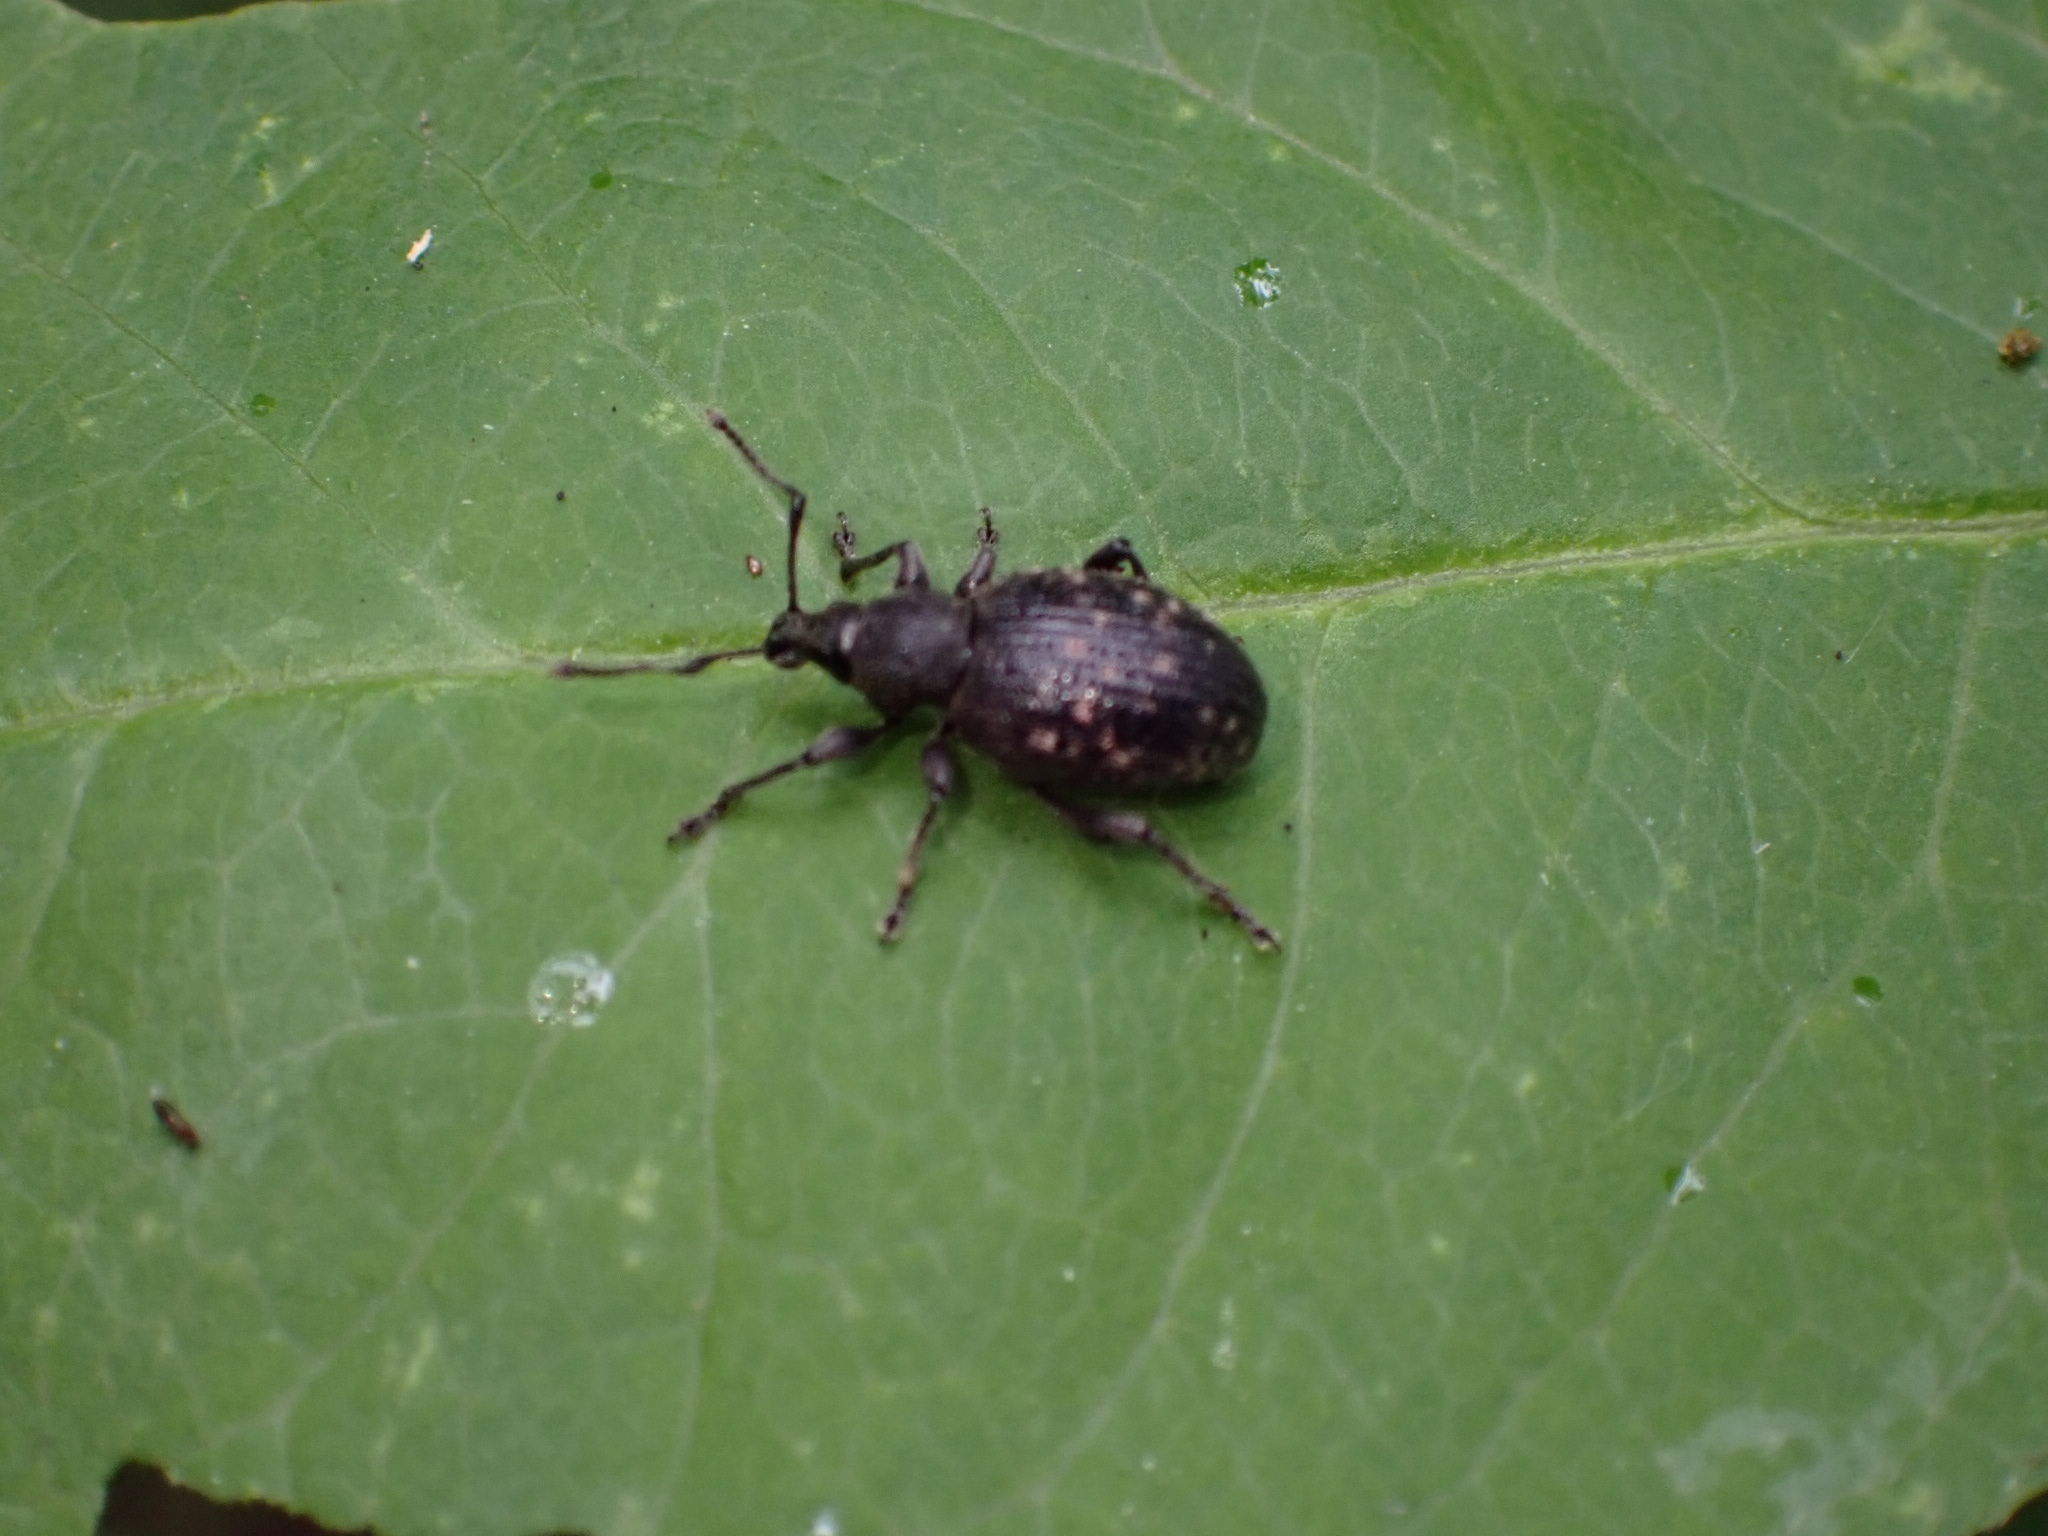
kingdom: Animalia
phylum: Arthropoda
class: Insecta
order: Coleoptera
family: Curculionidae
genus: Otiorhynchus
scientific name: Otiorhynchus tristis
